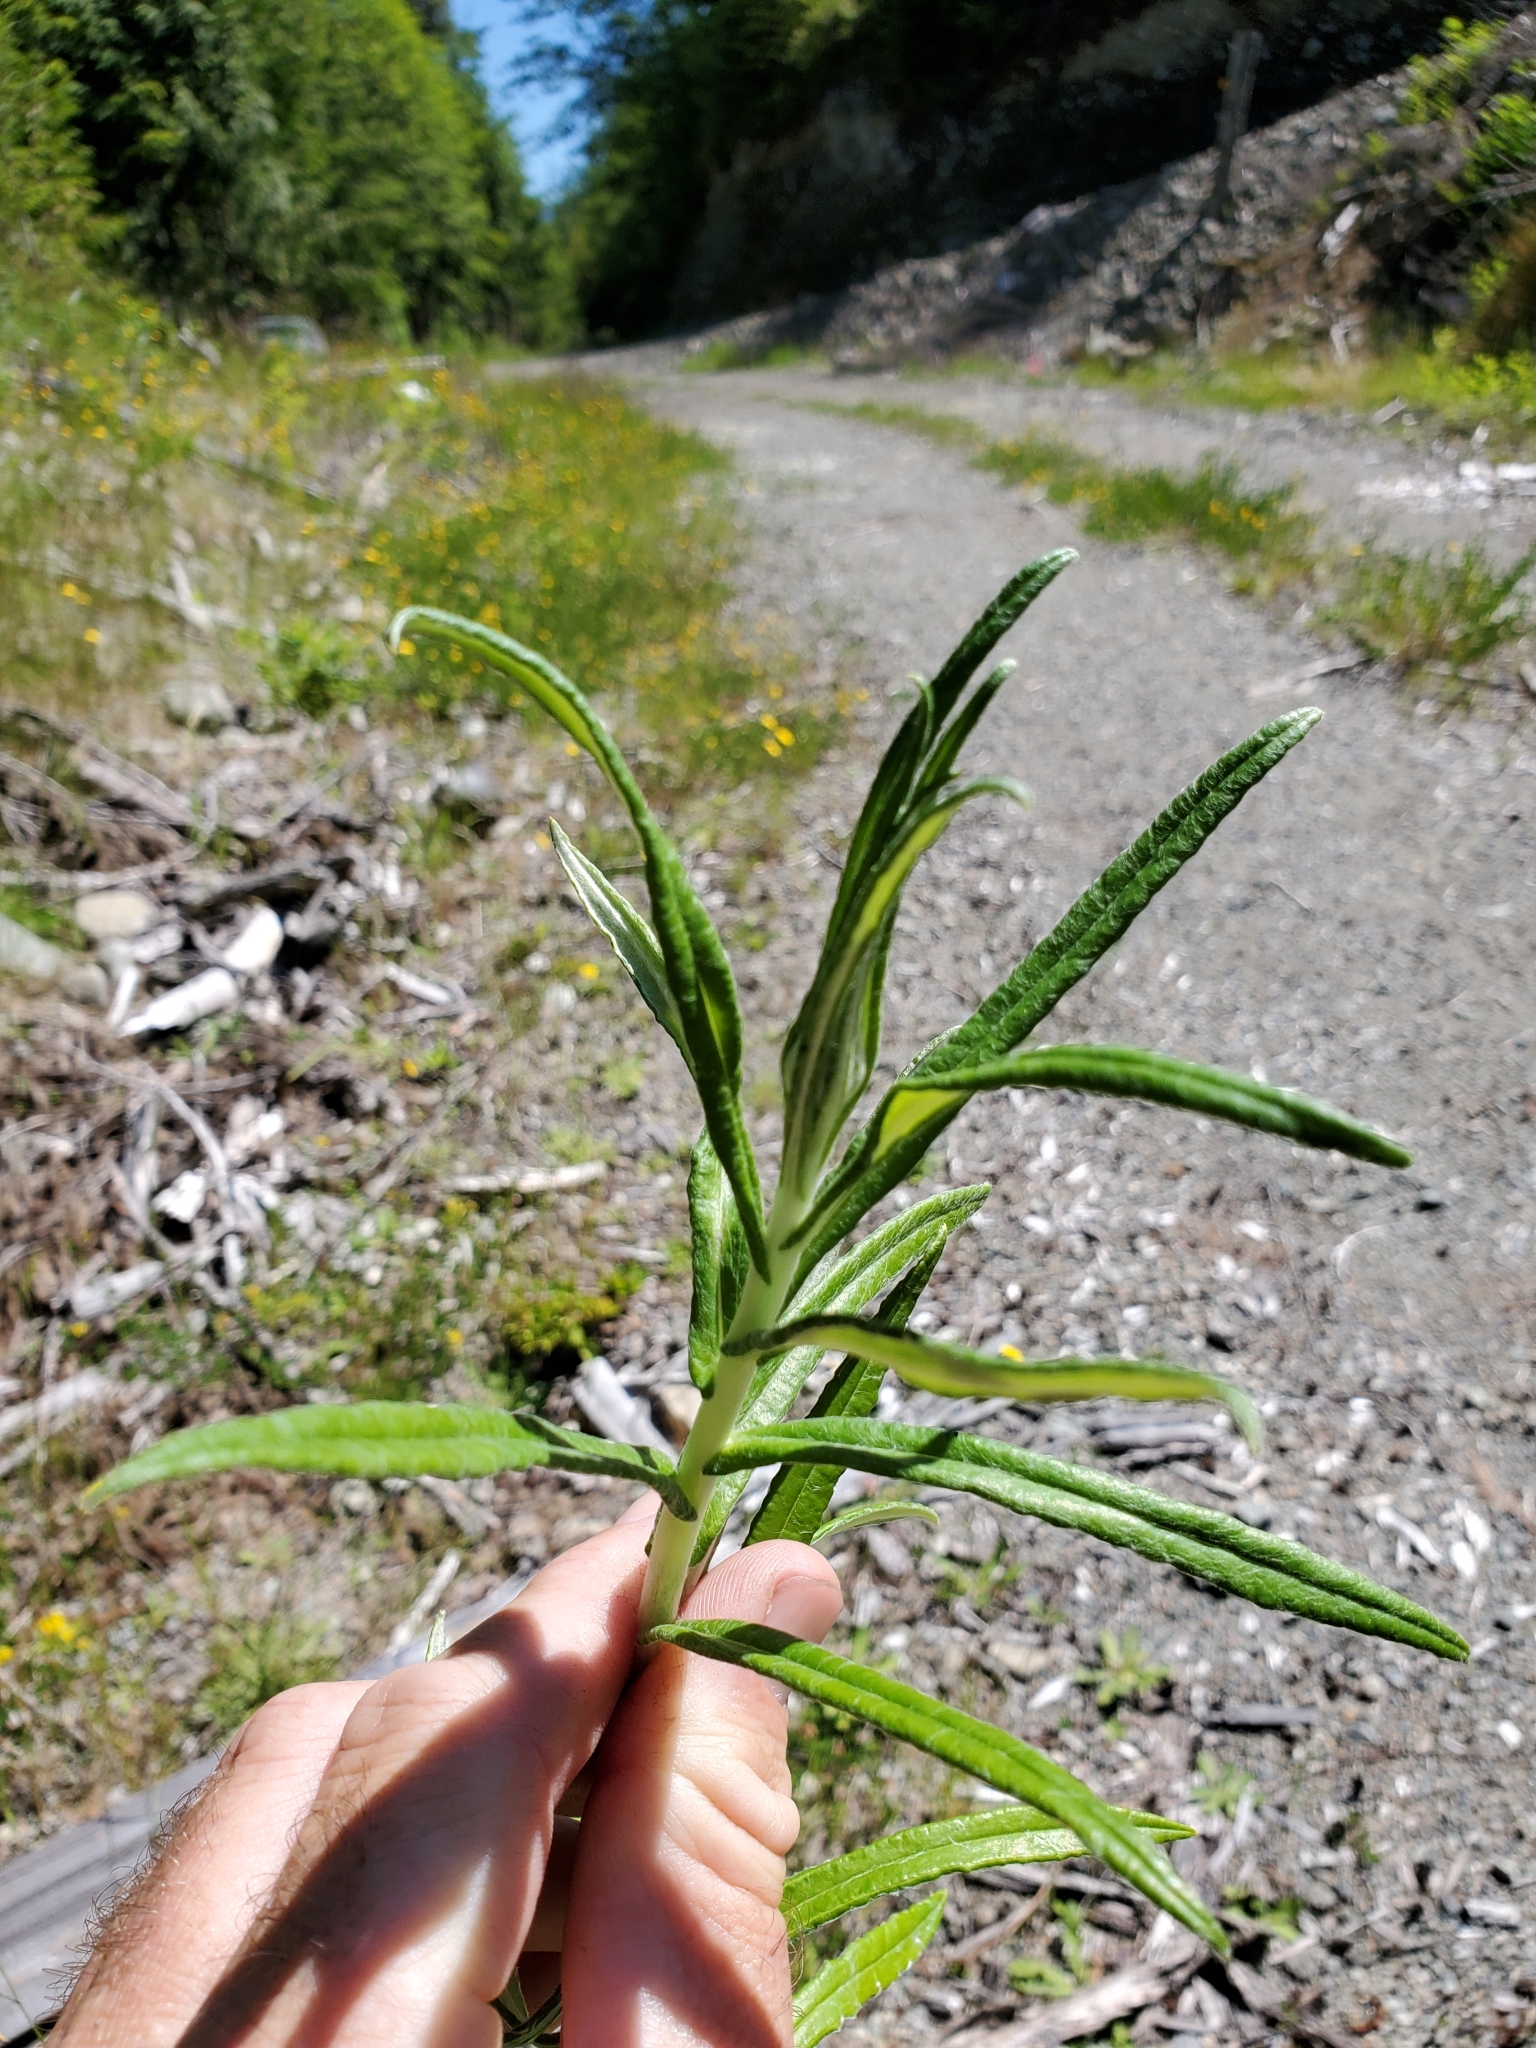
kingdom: Plantae
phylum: Tracheophyta
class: Magnoliopsida
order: Asterales
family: Asteraceae
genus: Anaphalis
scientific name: Anaphalis margaritacea
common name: Pearly everlasting
